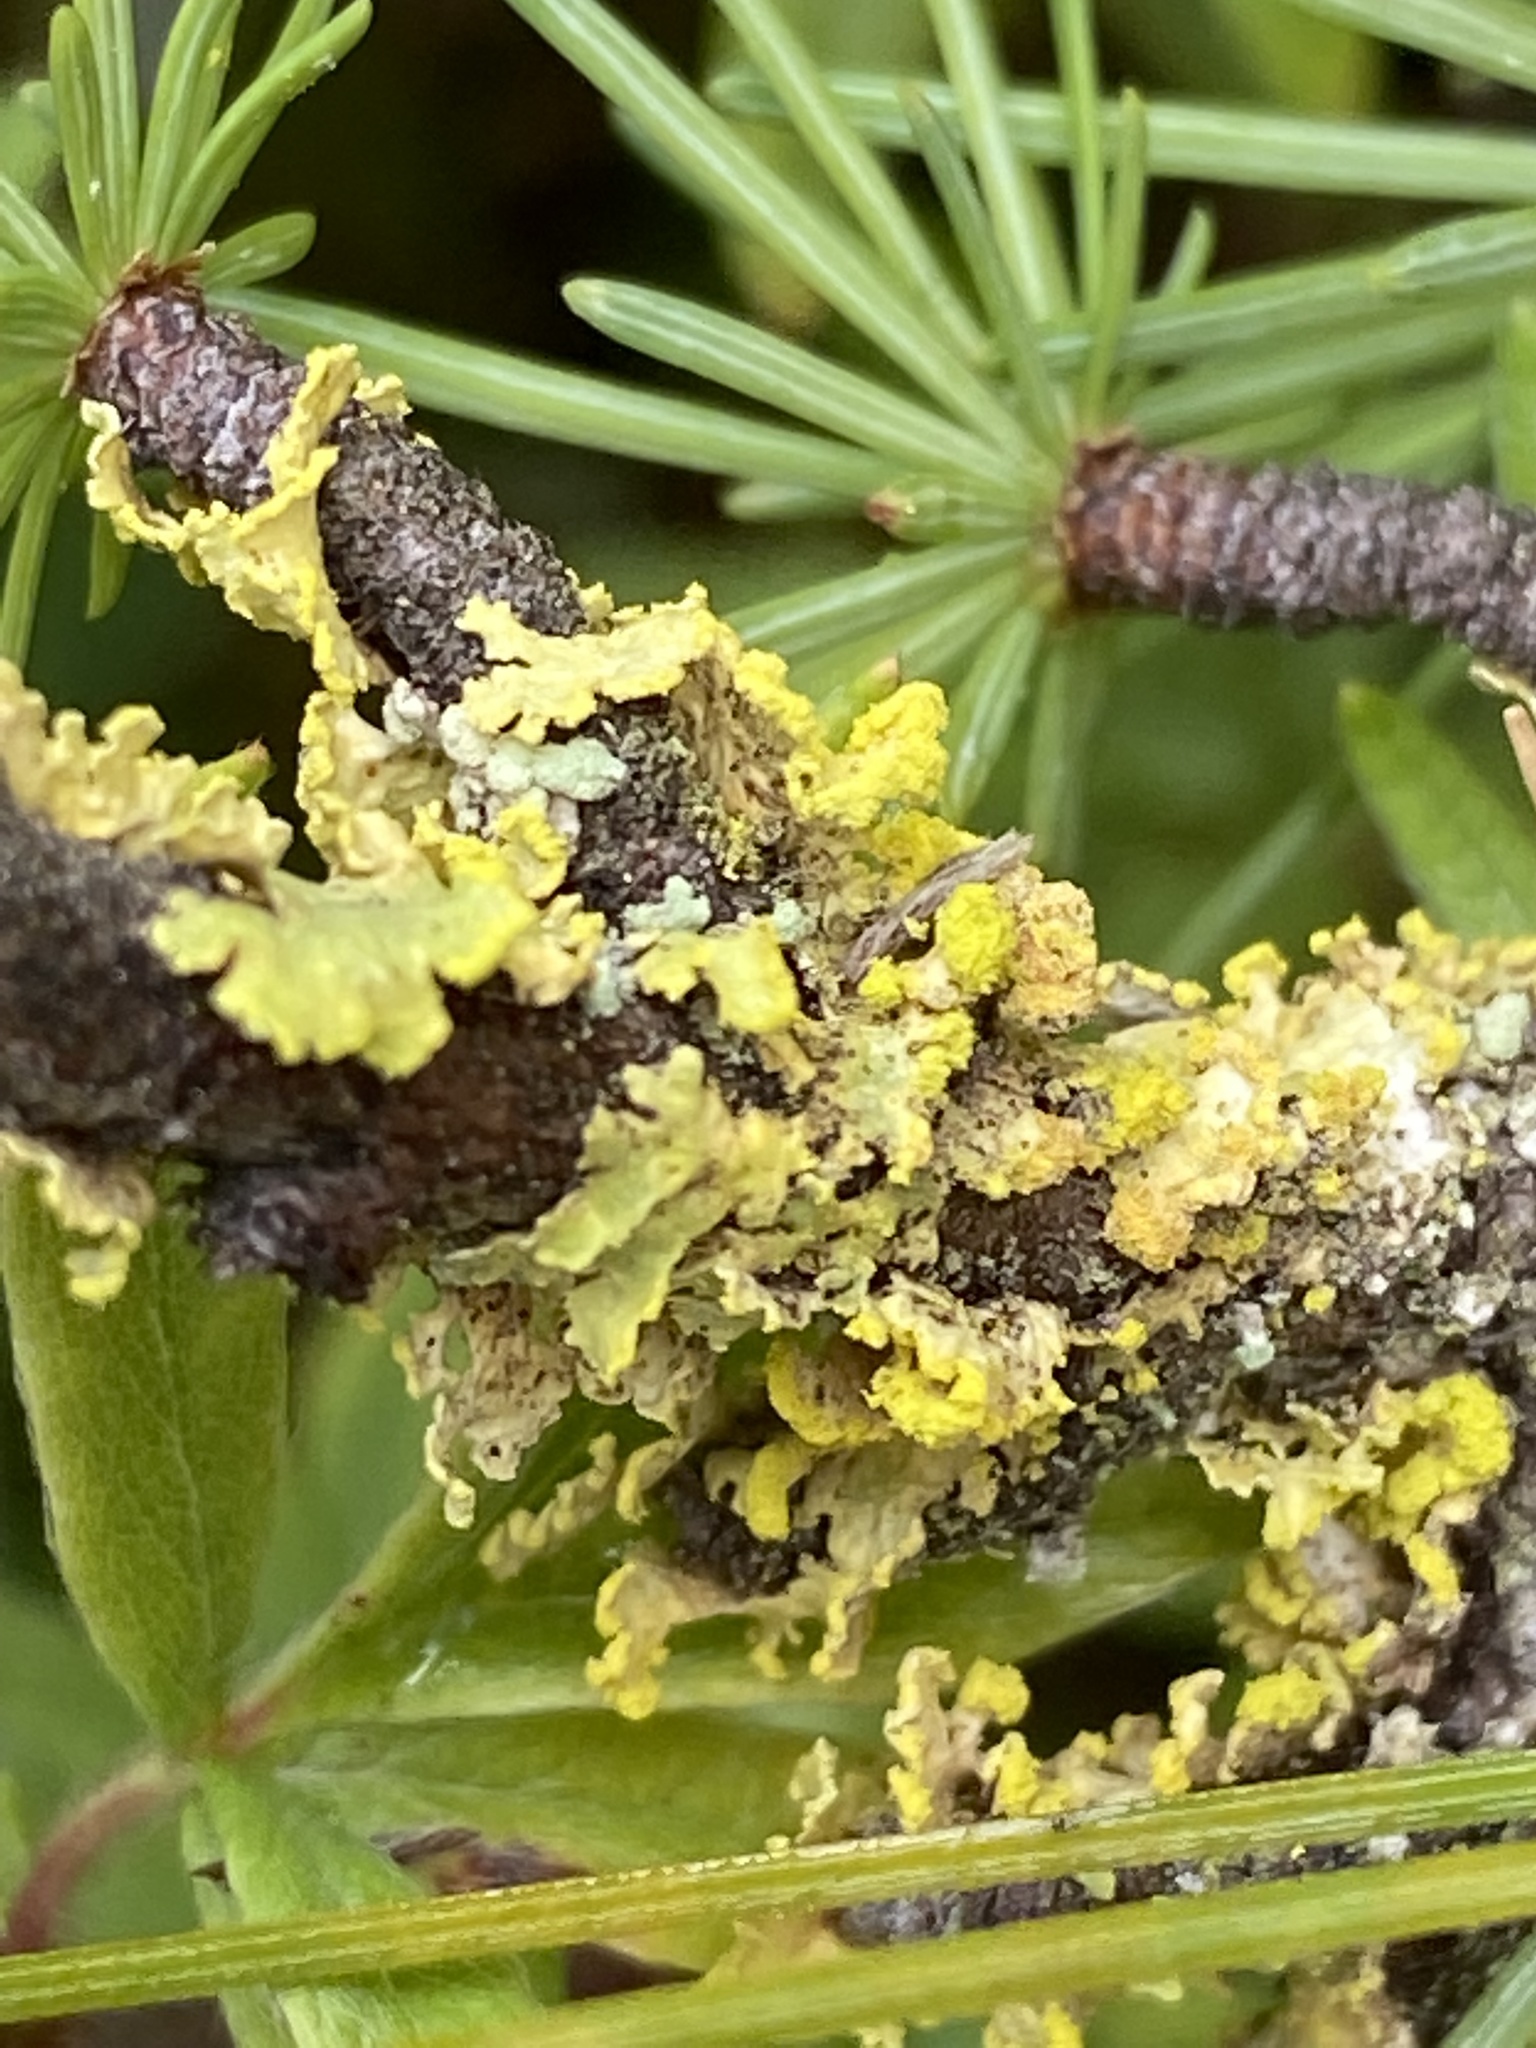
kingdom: Fungi
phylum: Ascomycota
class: Lecanoromycetes
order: Lecanorales
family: Parmeliaceae
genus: Vulpicida
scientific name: Vulpicida pinastri
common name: Powdered sunshine lichen
